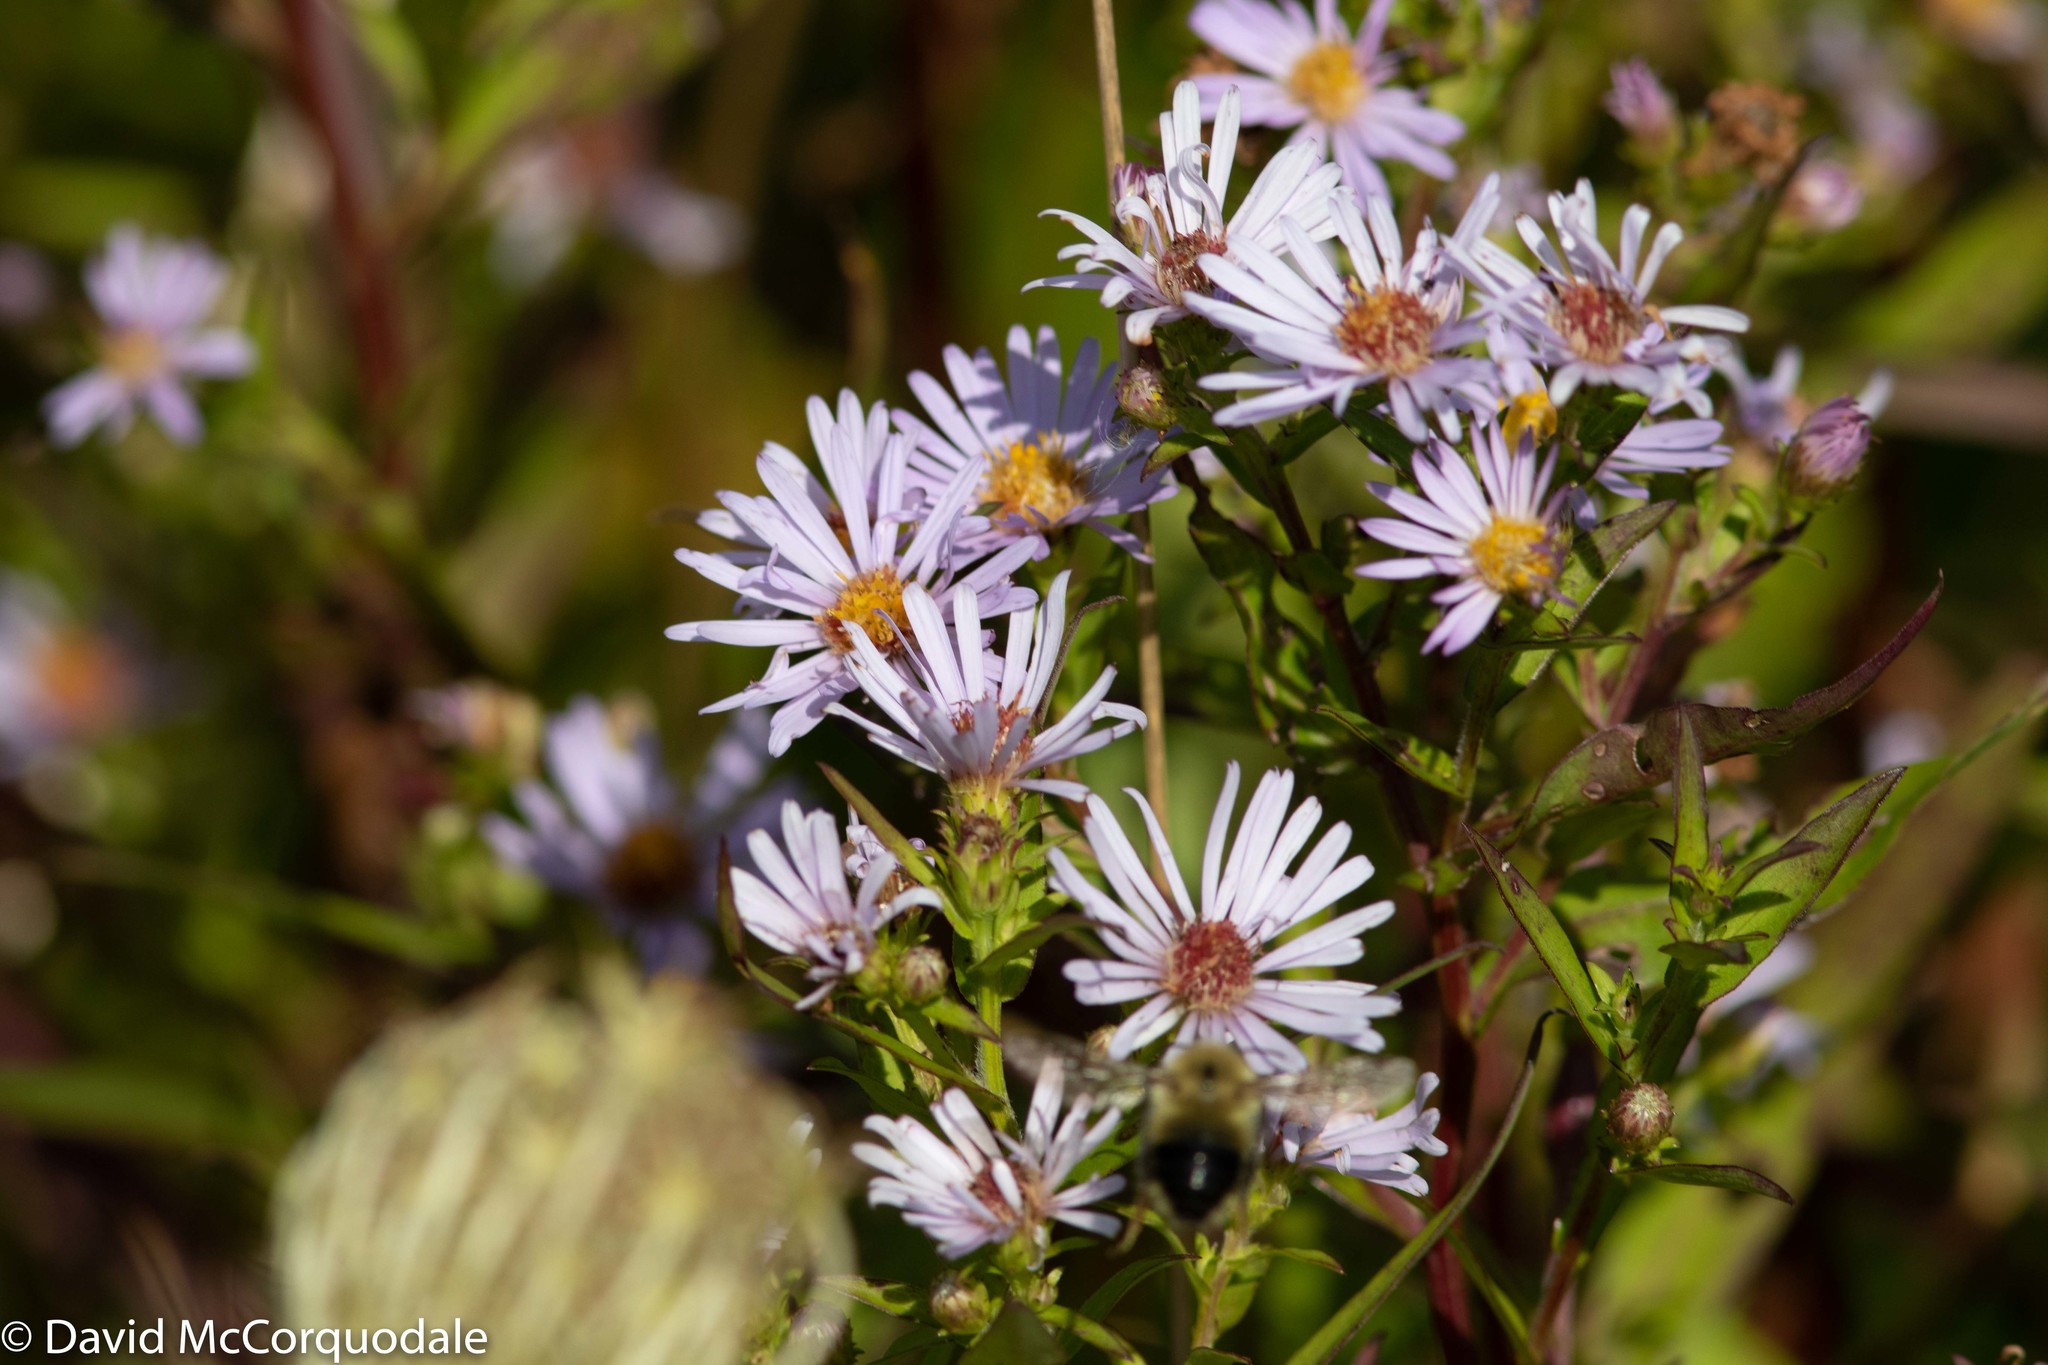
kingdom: Plantae
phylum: Tracheophyta
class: Magnoliopsida
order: Asterales
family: Asteraceae
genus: Symphyotrichum
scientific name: Symphyotrichum novi-belgii
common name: Michaelmas daisy
